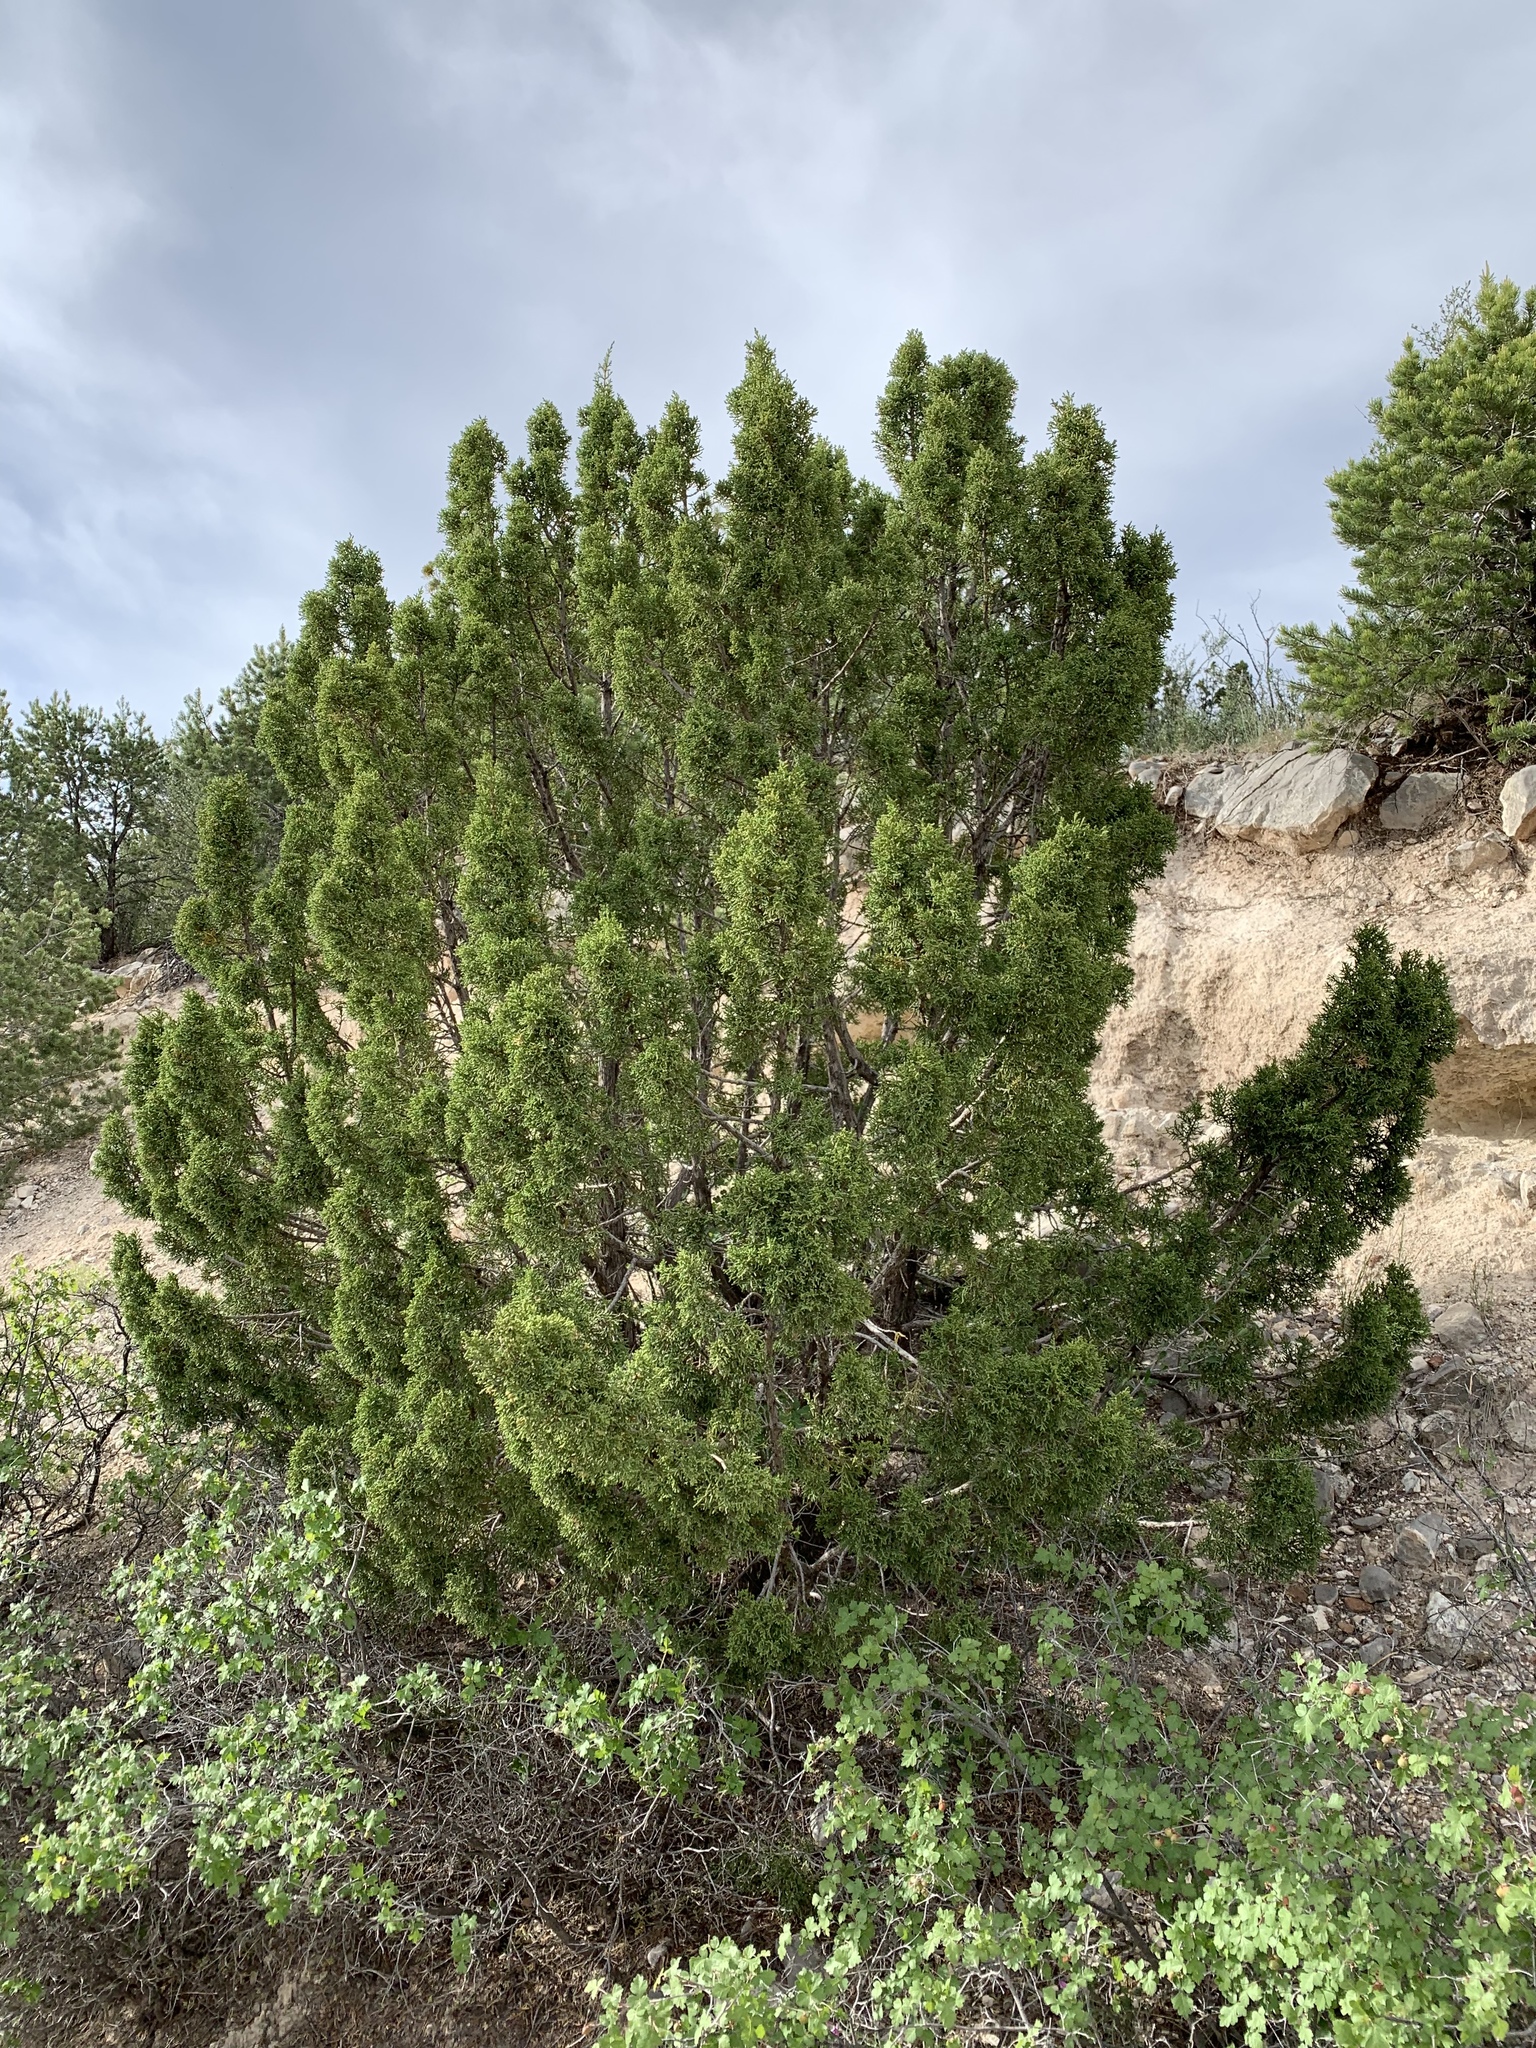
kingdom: Plantae
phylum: Tracheophyta
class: Pinopsida
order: Pinales
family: Cupressaceae
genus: Juniperus
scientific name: Juniperus monosperma
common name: One-seed juniper
